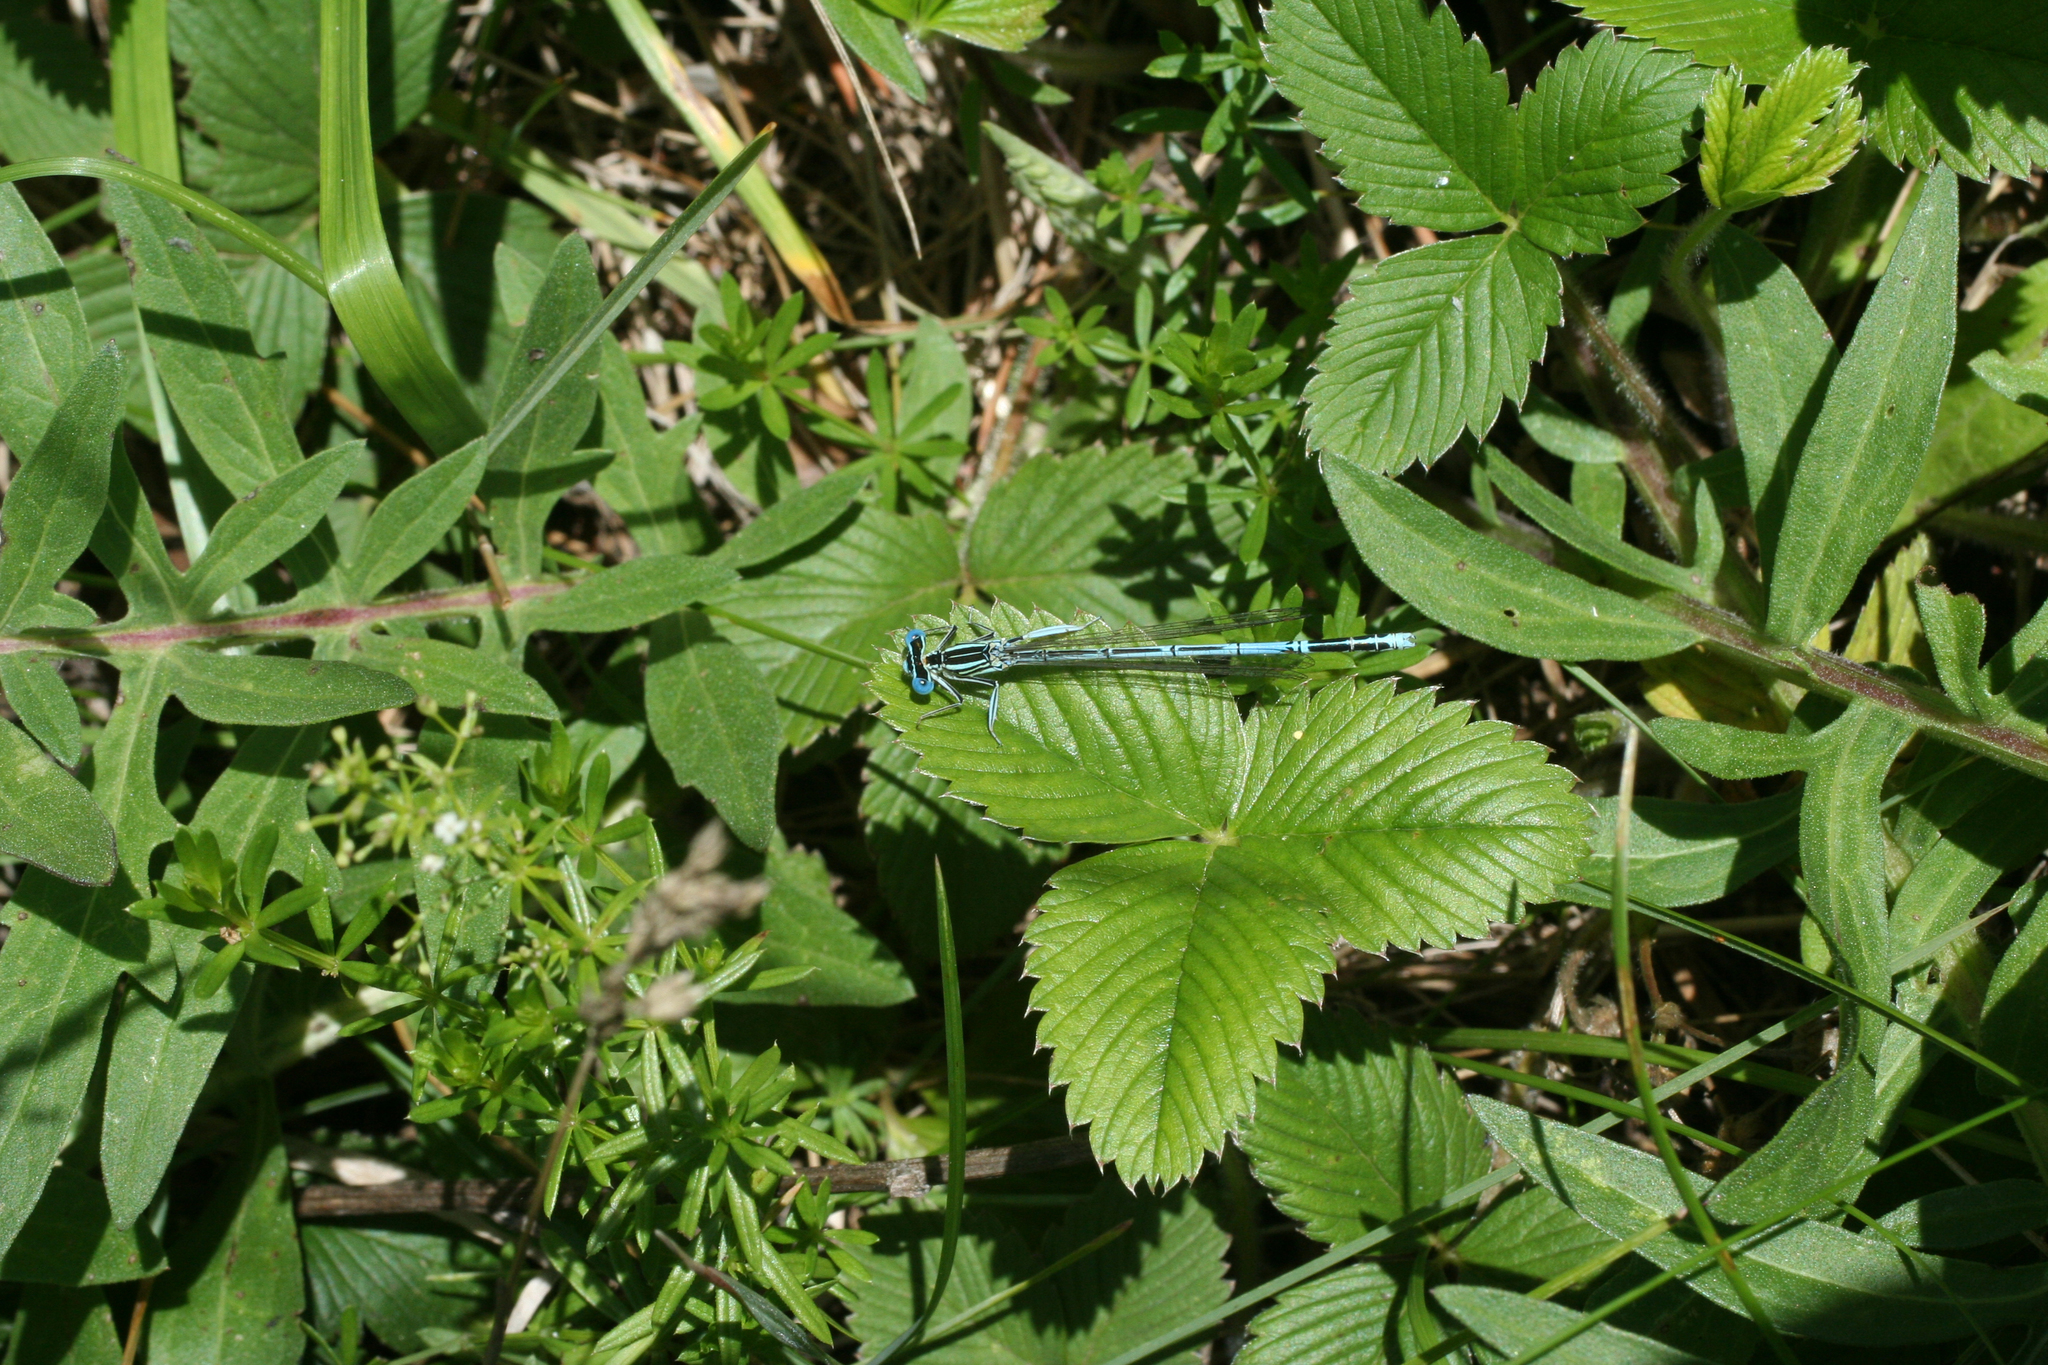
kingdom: Plantae
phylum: Tracheophyta
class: Magnoliopsida
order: Gentianales
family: Rubiaceae
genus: Galium
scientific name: Galium mollugo
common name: Hedge bedstraw
